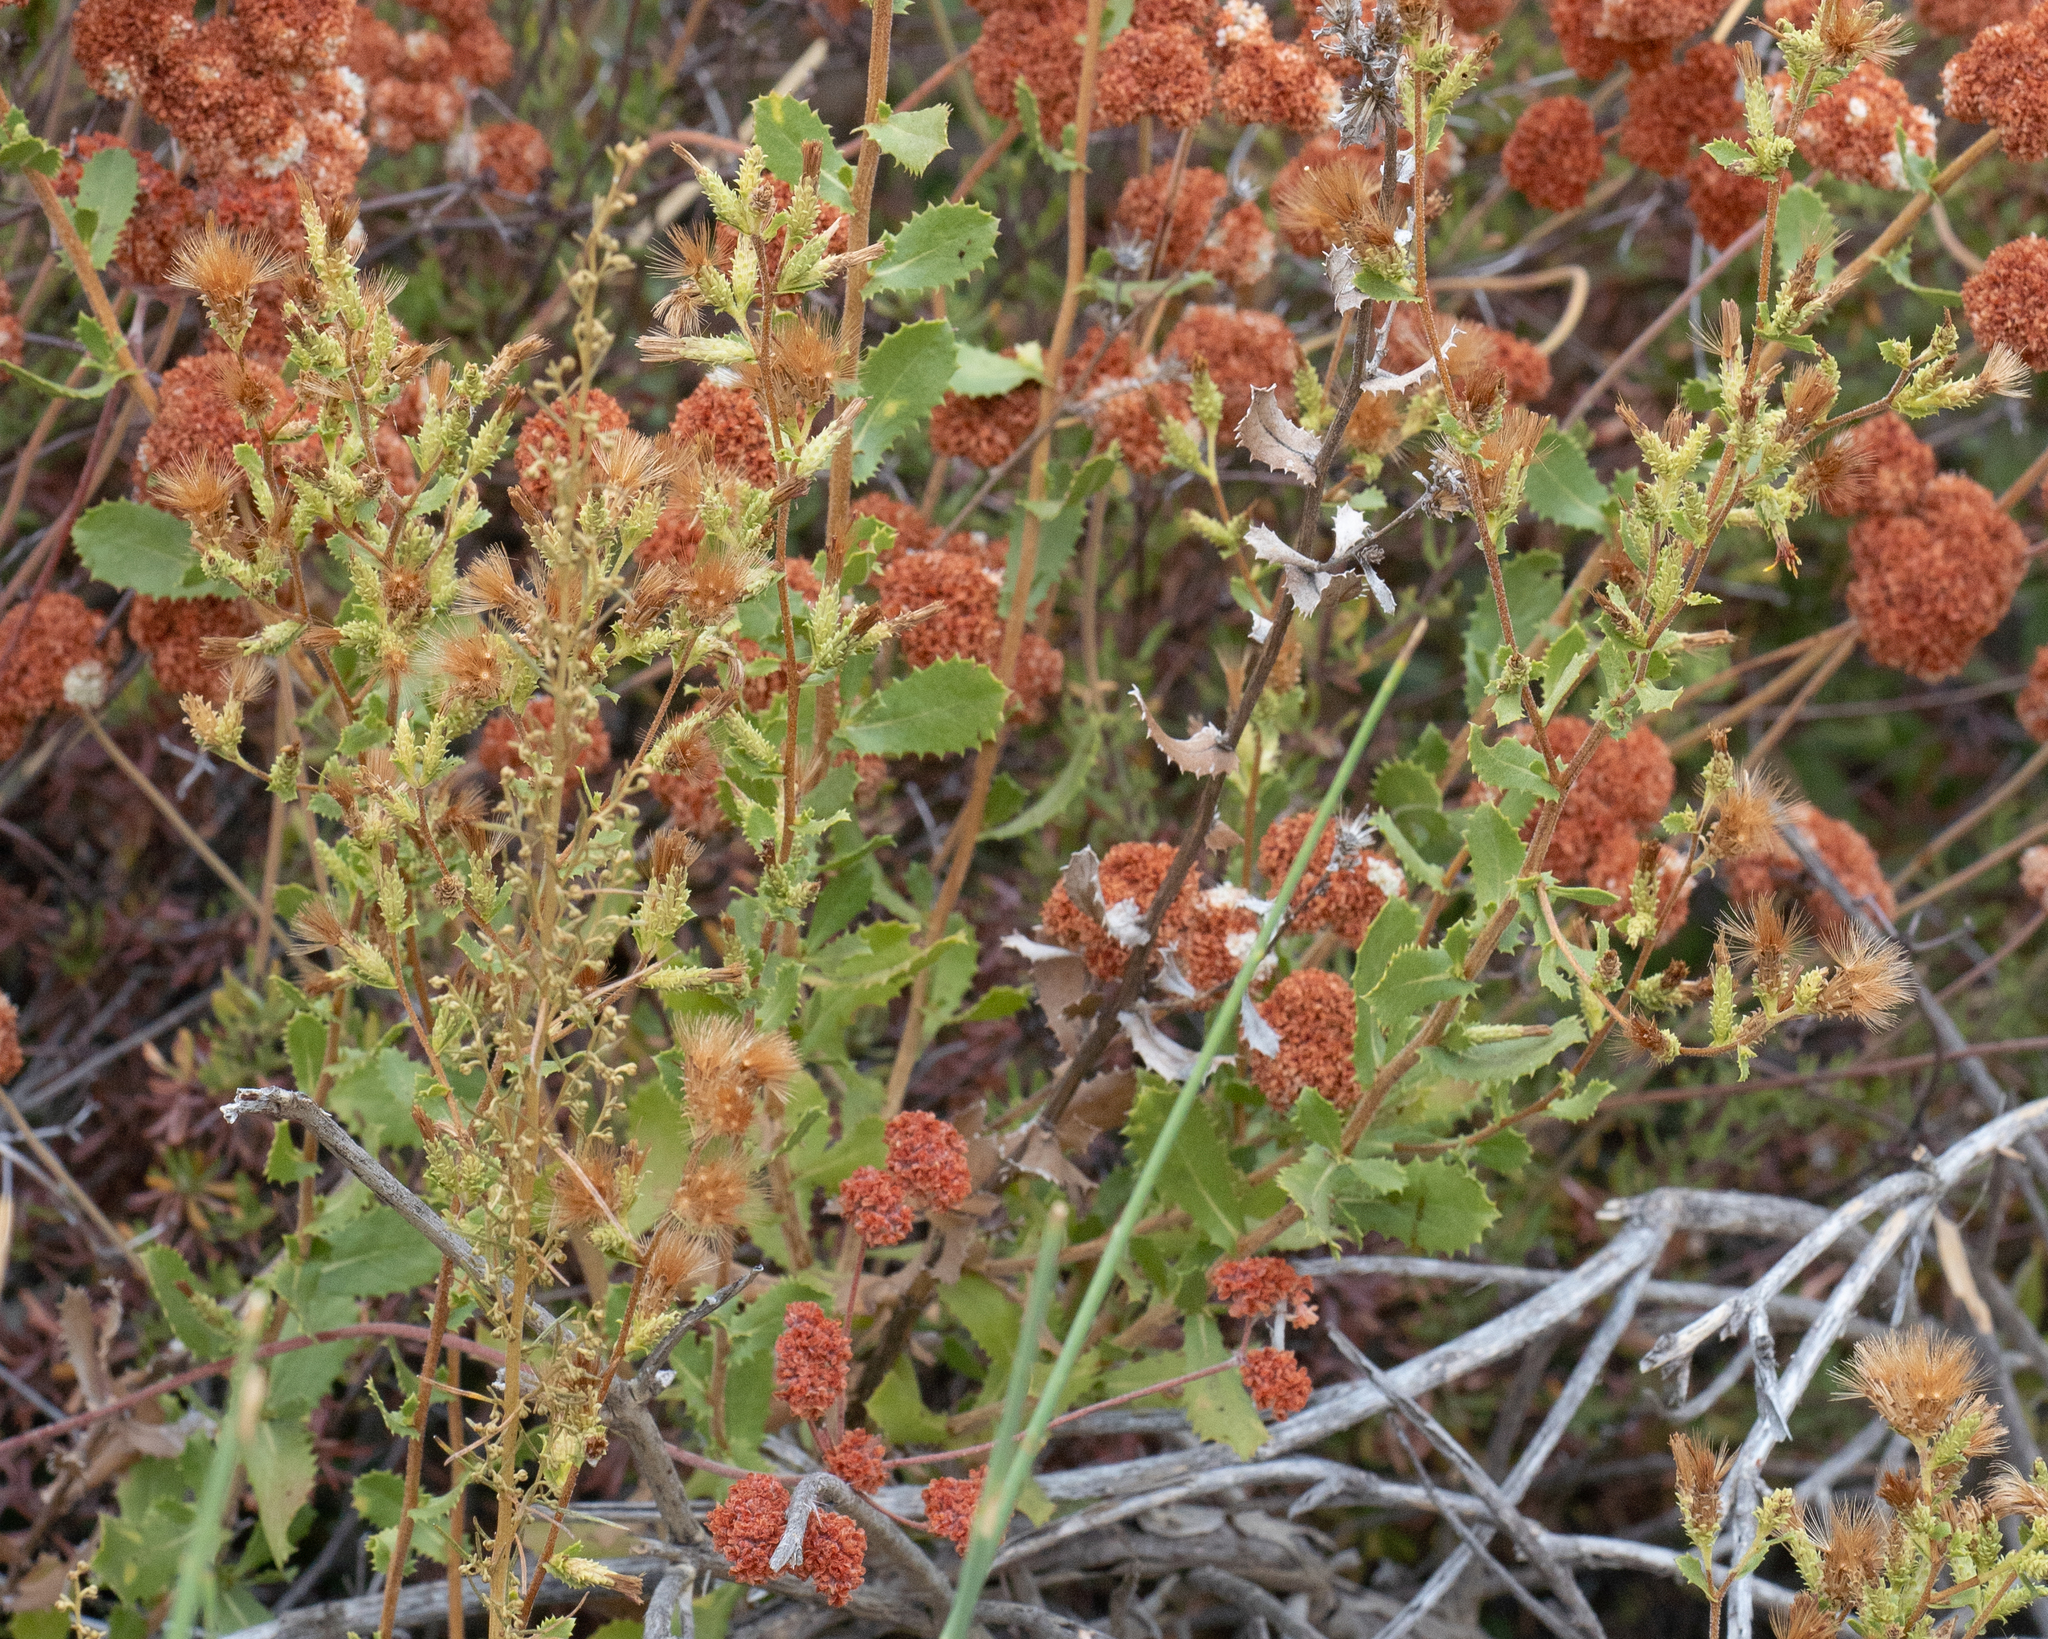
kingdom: Plantae
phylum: Tracheophyta
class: Magnoliopsida
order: Asterales
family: Asteraceae
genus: Hazardia
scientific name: Hazardia squarrosa
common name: Saw-tooth goldenbush
